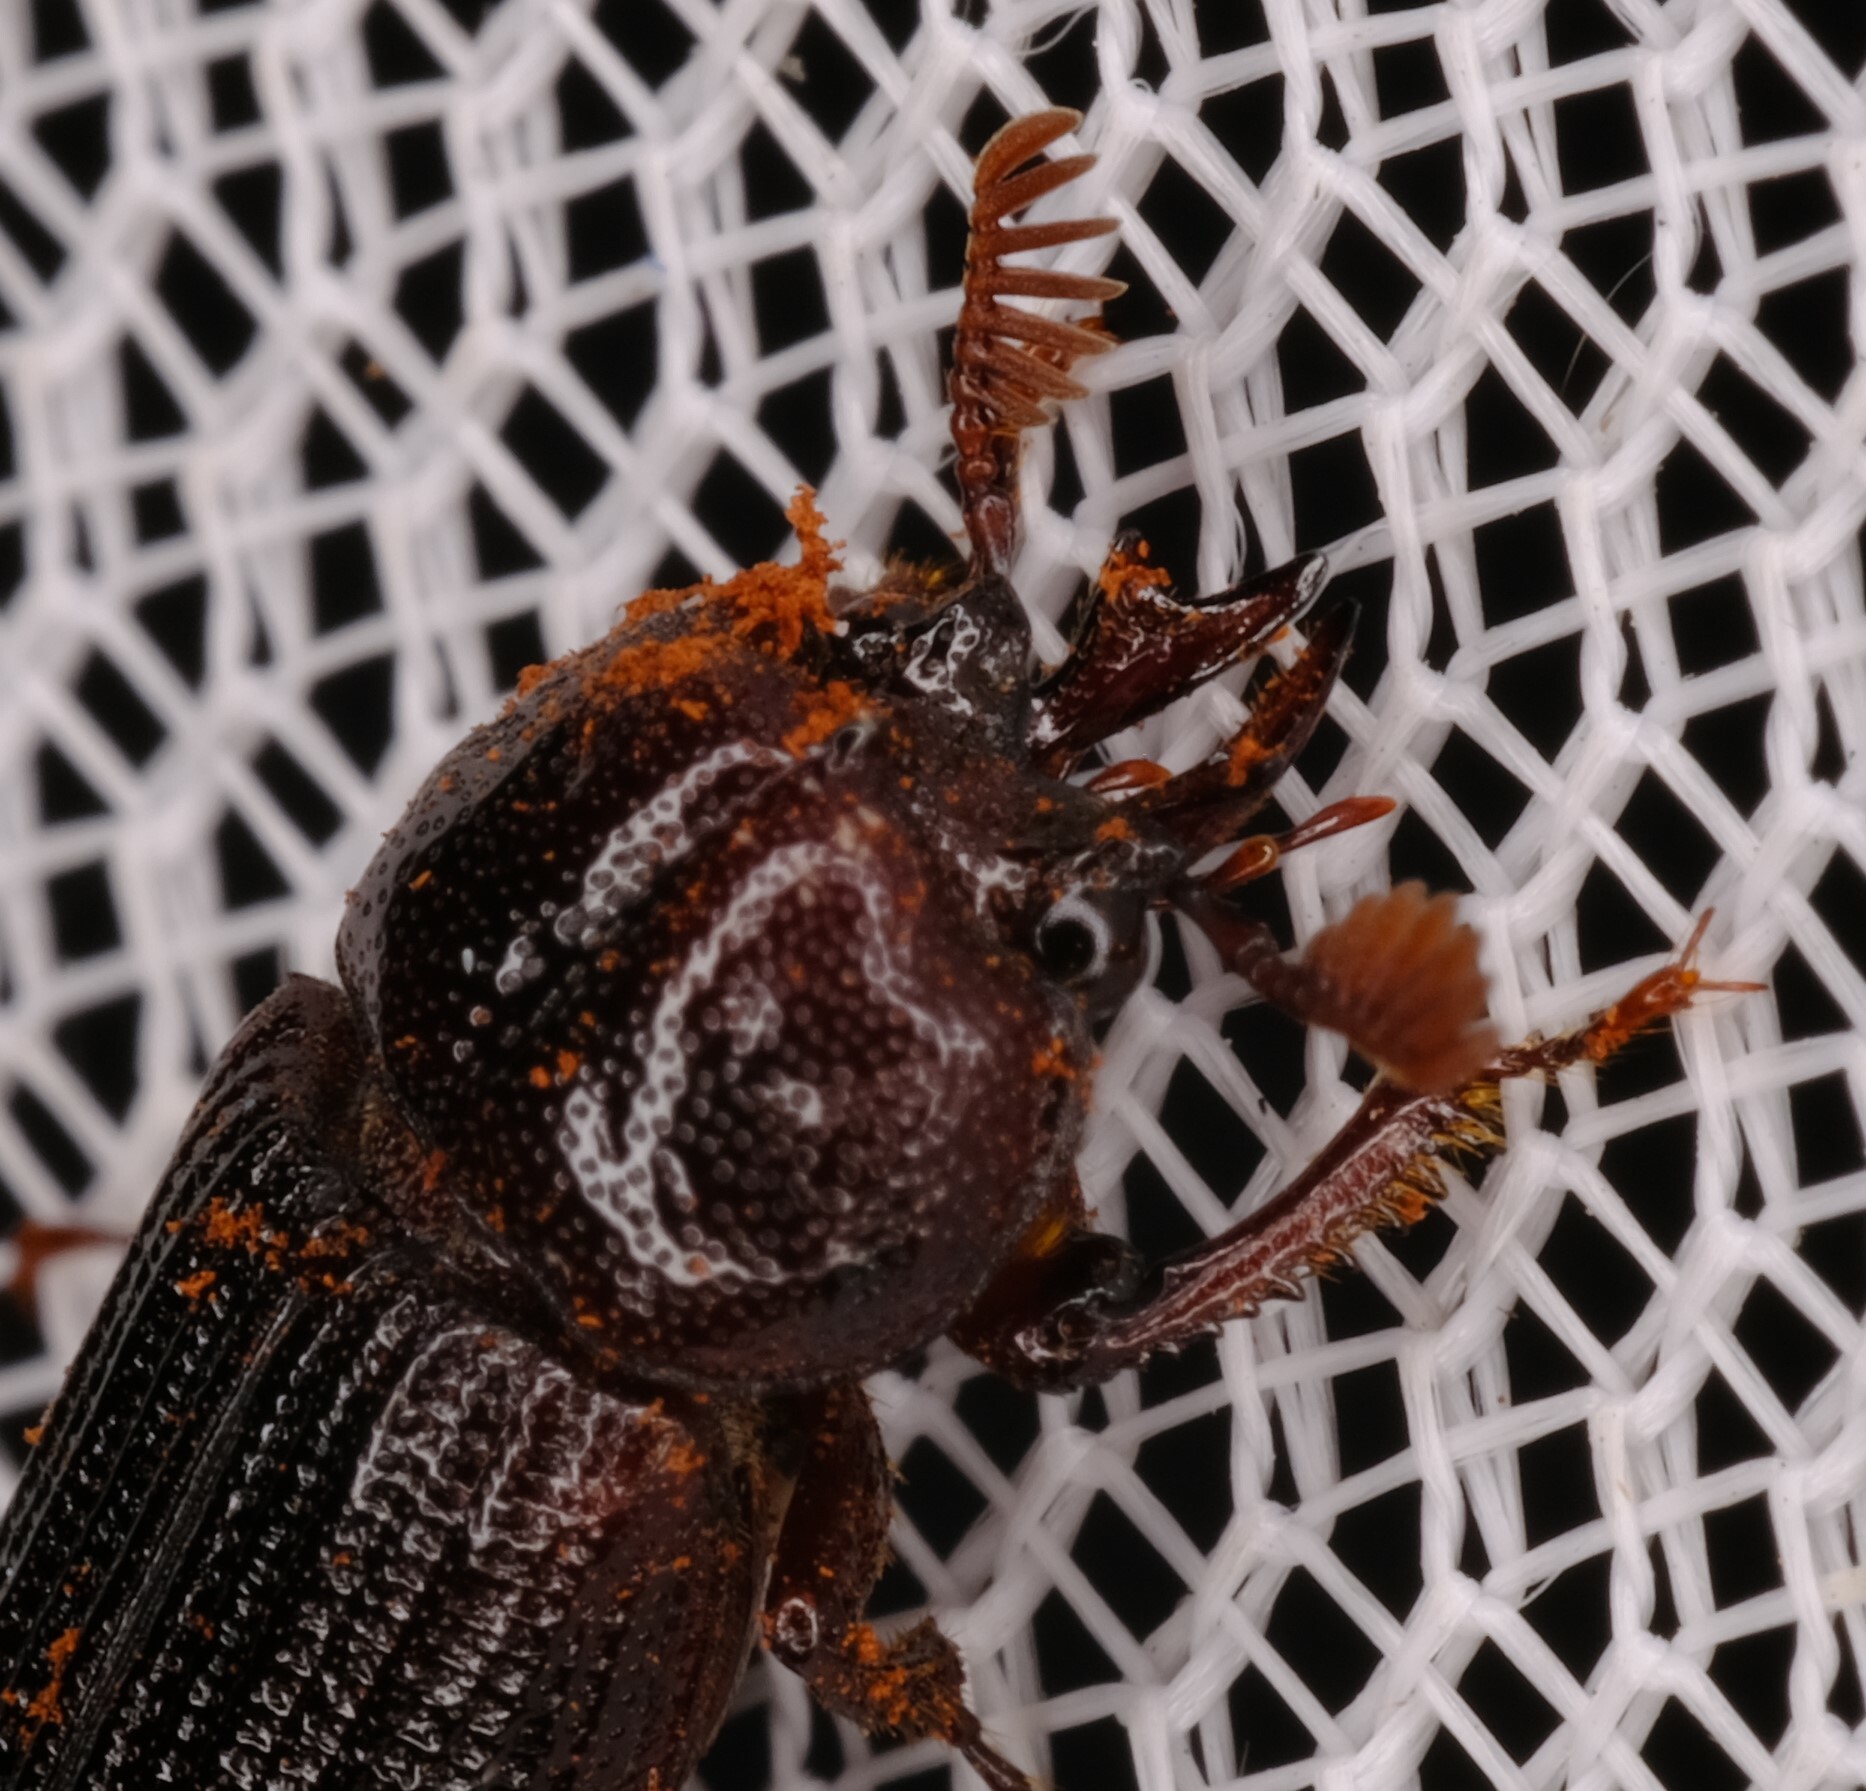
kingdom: Animalia
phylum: Arthropoda
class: Insecta
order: Coleoptera
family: Lucanidae
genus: Syndesus
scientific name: Syndesus cornutus
